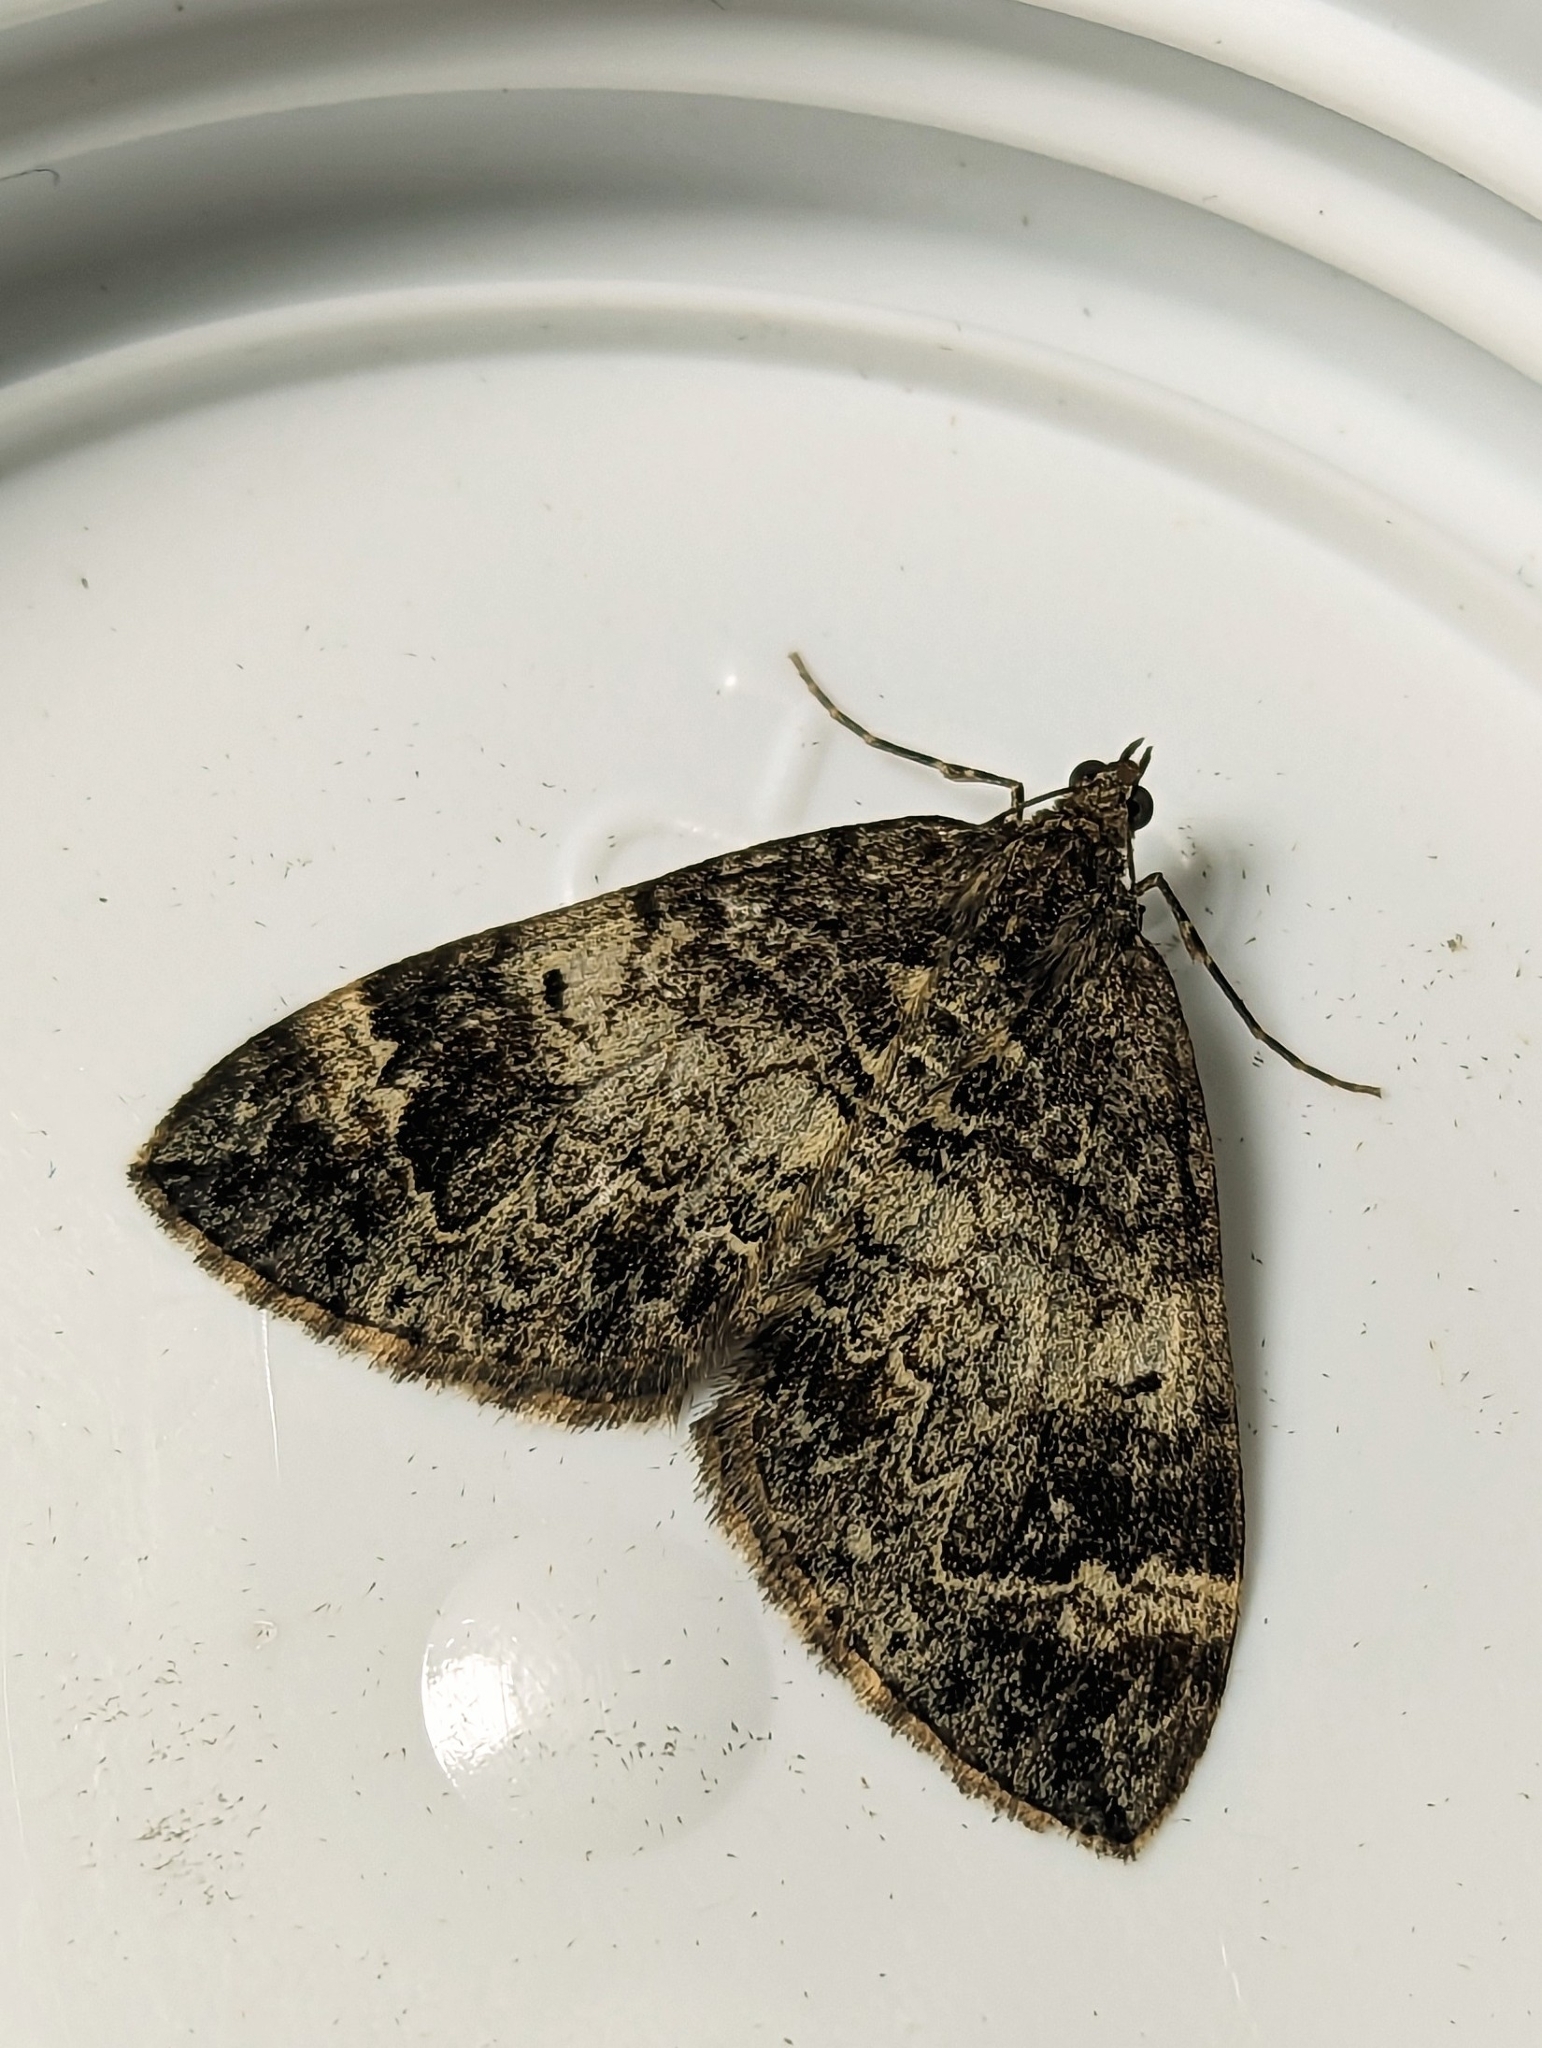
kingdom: Animalia
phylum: Arthropoda
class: Insecta
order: Lepidoptera
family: Geometridae
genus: Dysstroma
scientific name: Dysstroma truncata
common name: Common marbled carpet
